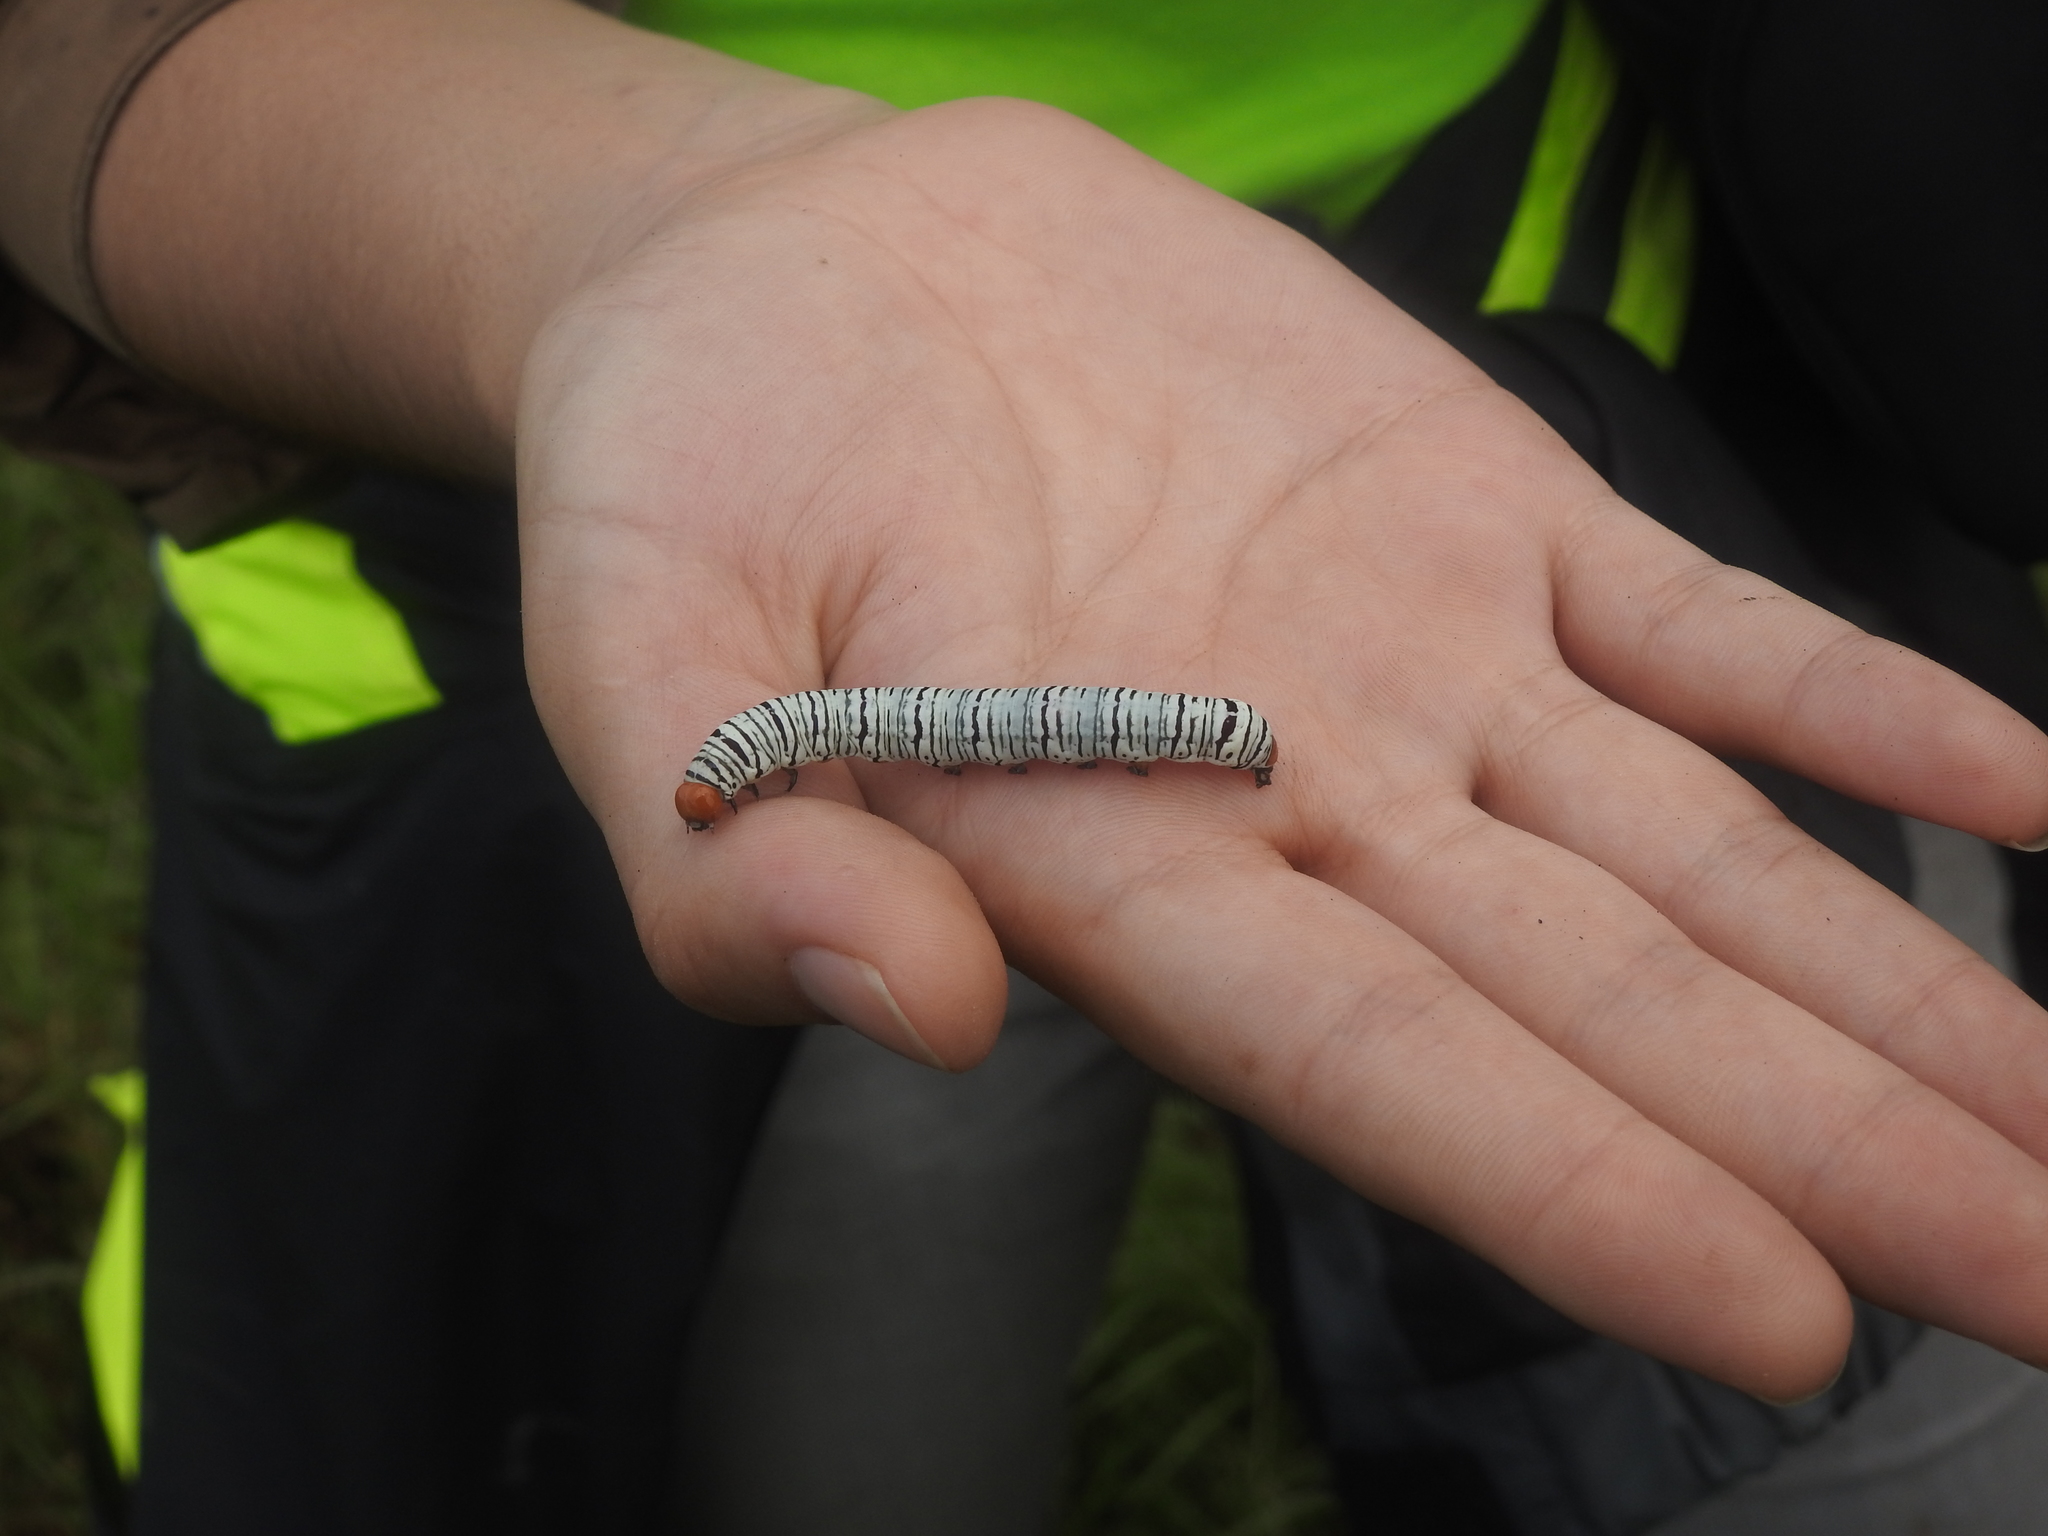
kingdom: Animalia
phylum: Arthropoda
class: Insecta
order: Lepidoptera
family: Erebidae
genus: Diphthera
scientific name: Diphthera festiva
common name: Hieroglyphic moth
